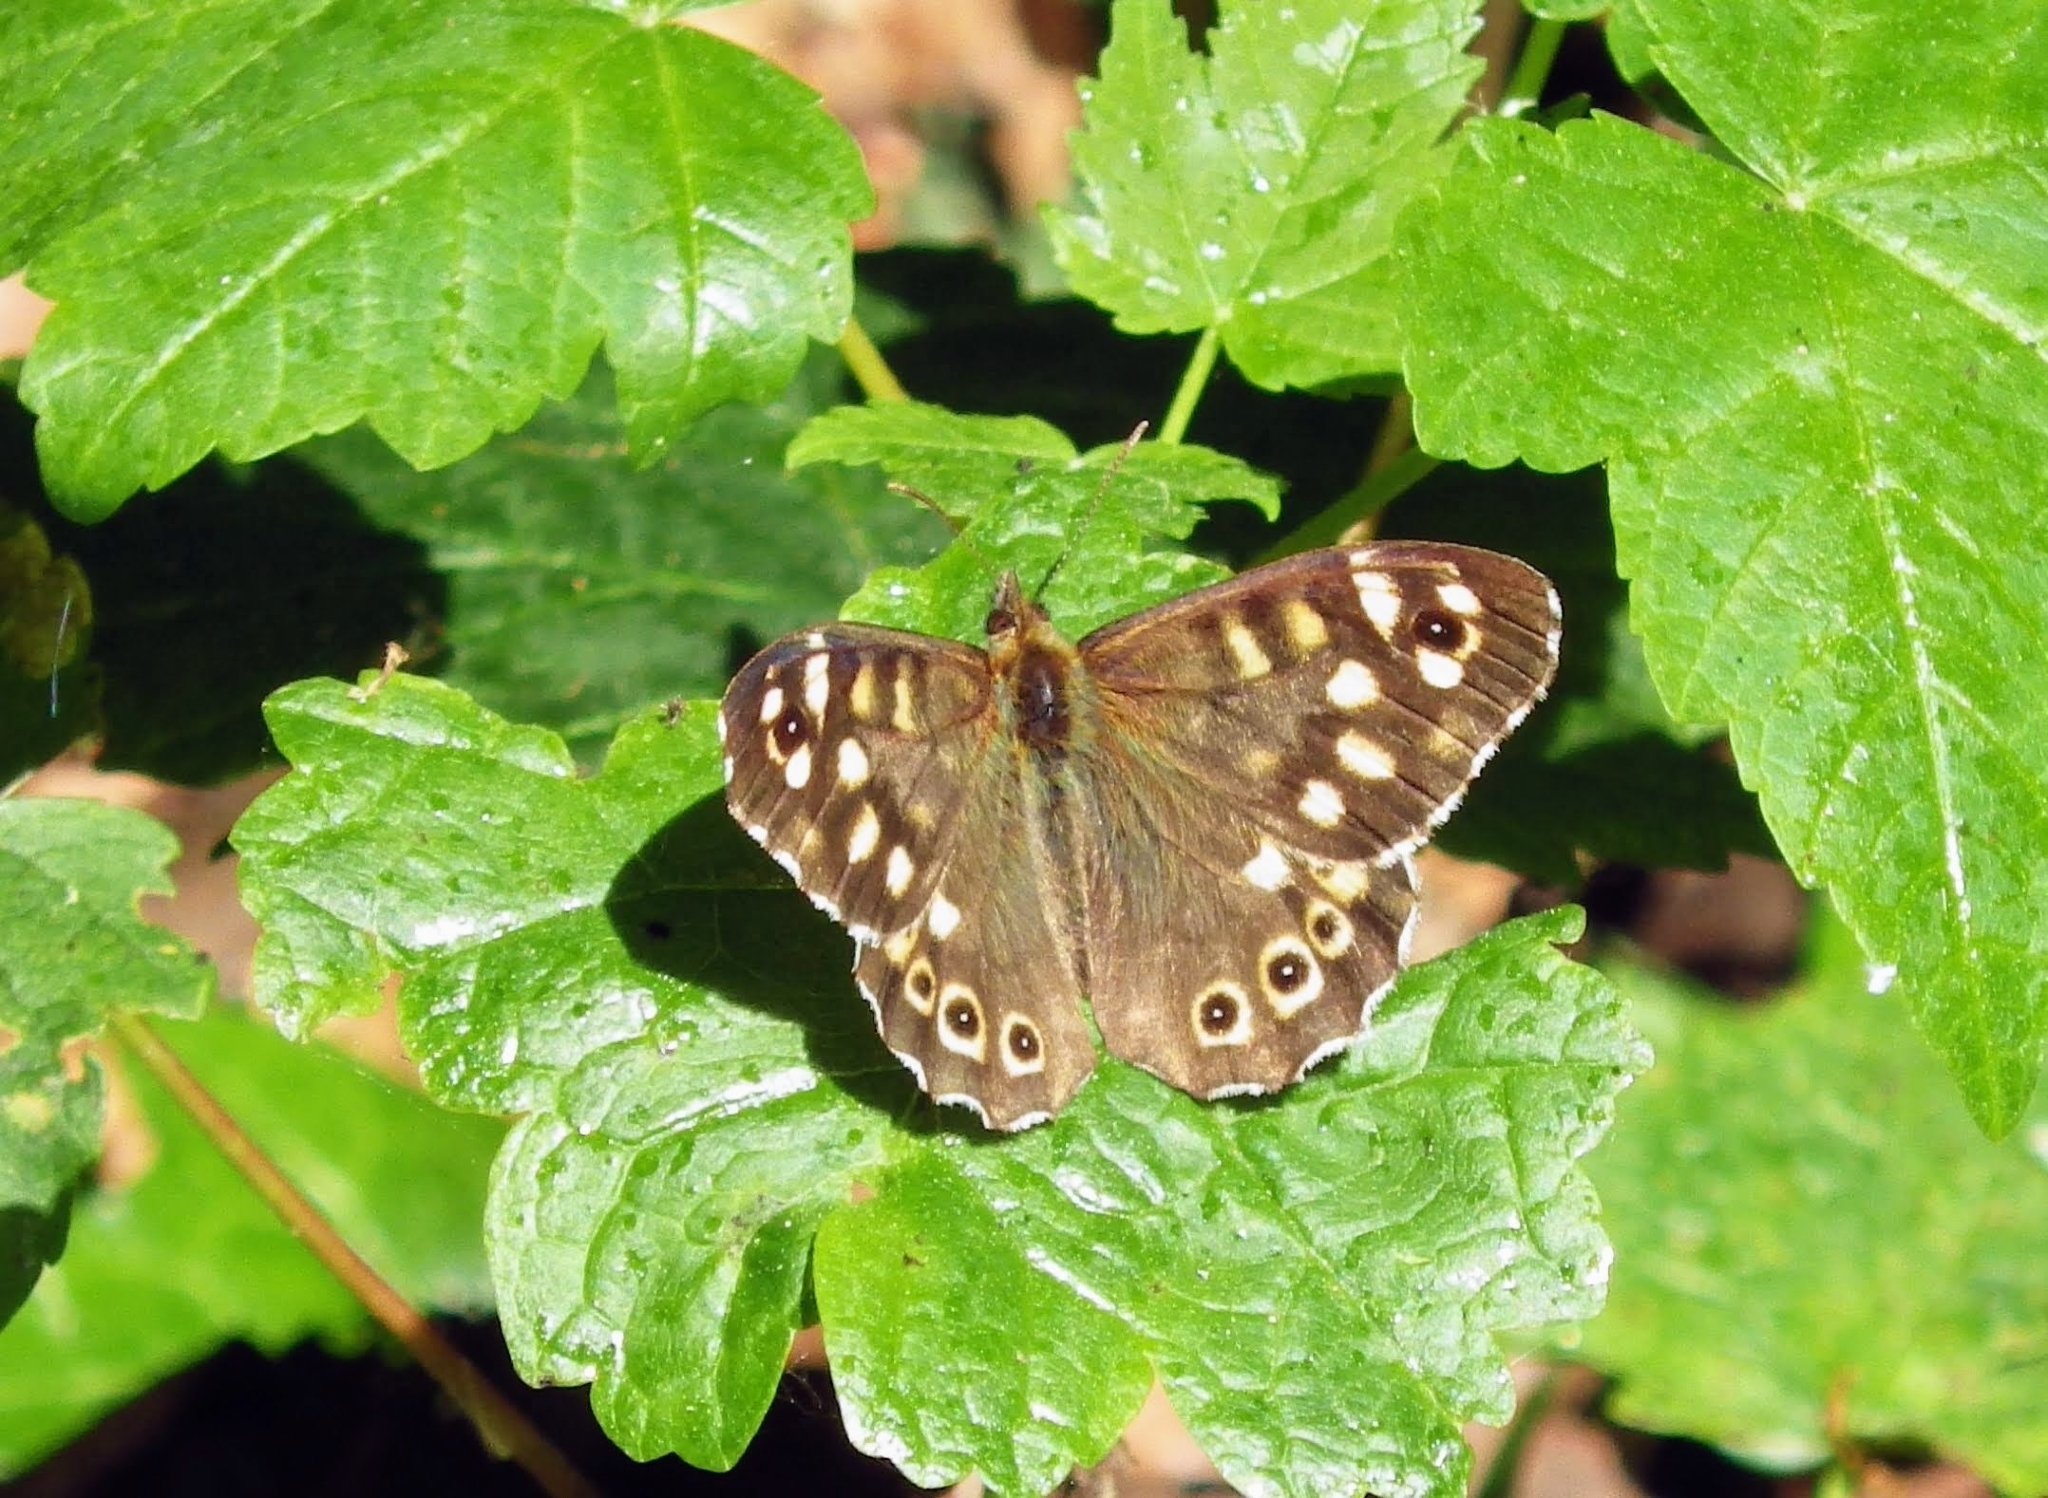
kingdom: Animalia
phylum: Arthropoda
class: Insecta
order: Lepidoptera
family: Nymphalidae
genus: Pararge
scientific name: Pararge aegeria
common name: Speckled wood
